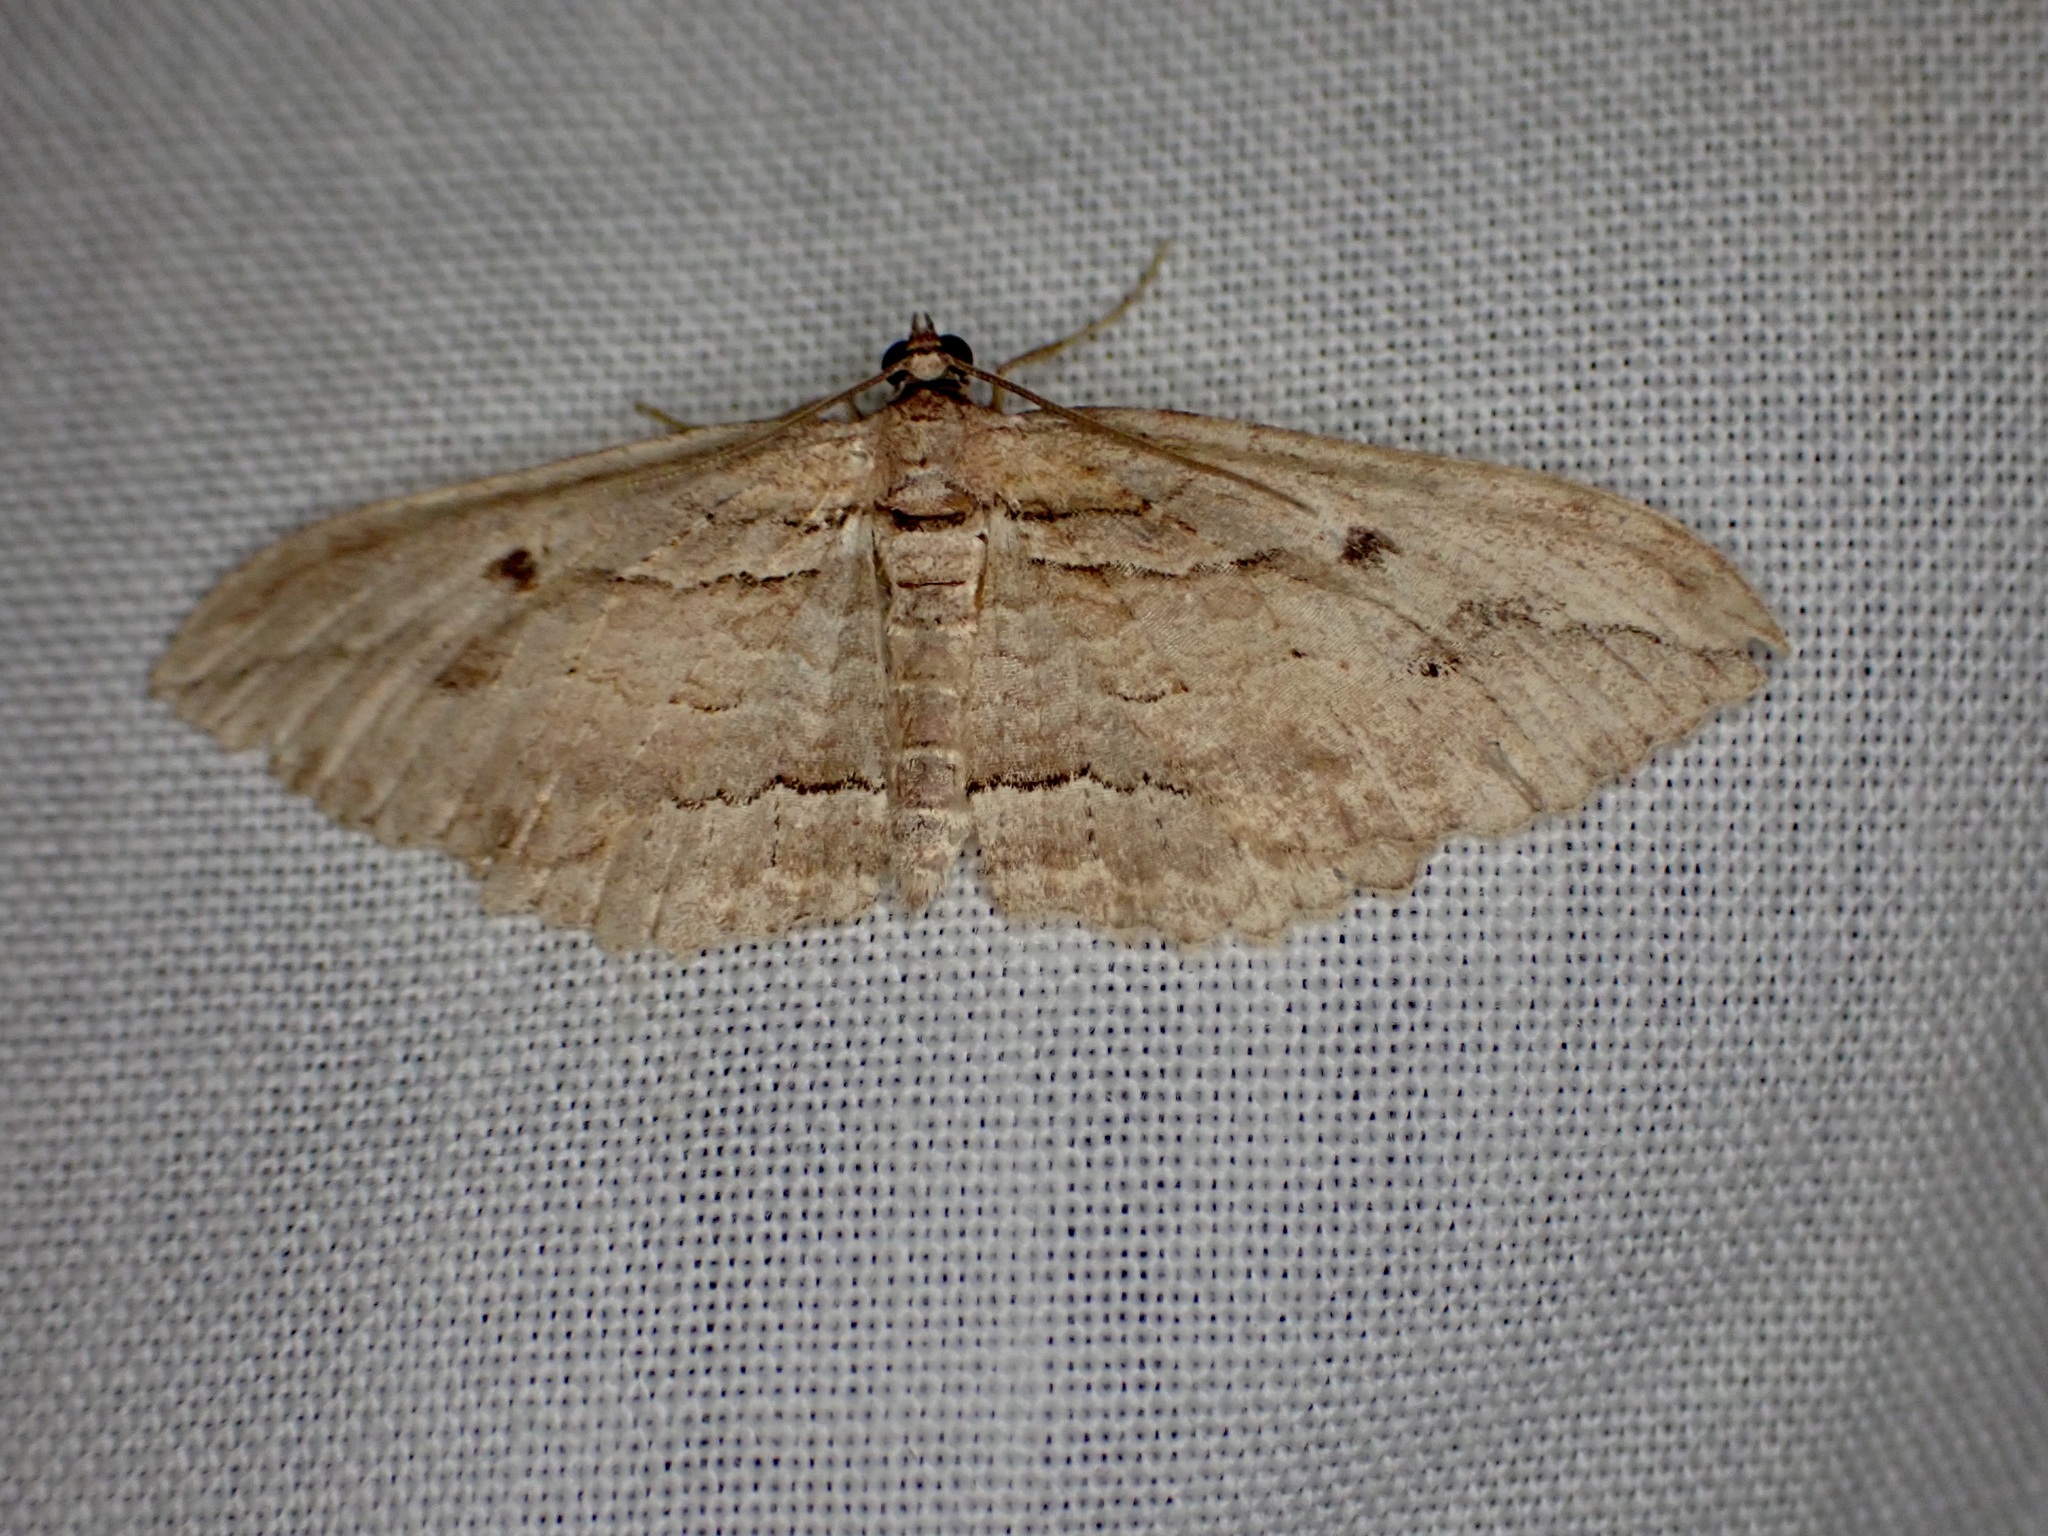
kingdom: Animalia
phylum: Arthropoda
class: Insecta
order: Lepidoptera
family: Geometridae
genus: Chloroclystis
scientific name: Chloroclystis filata
